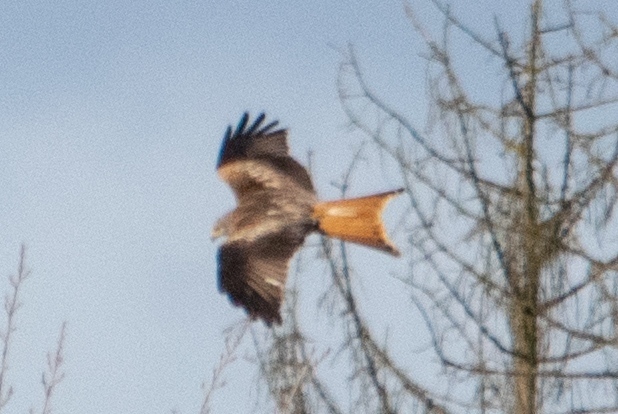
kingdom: Animalia
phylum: Chordata
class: Aves
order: Accipitriformes
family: Accipitridae
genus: Milvus
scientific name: Milvus milvus
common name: Red kite
